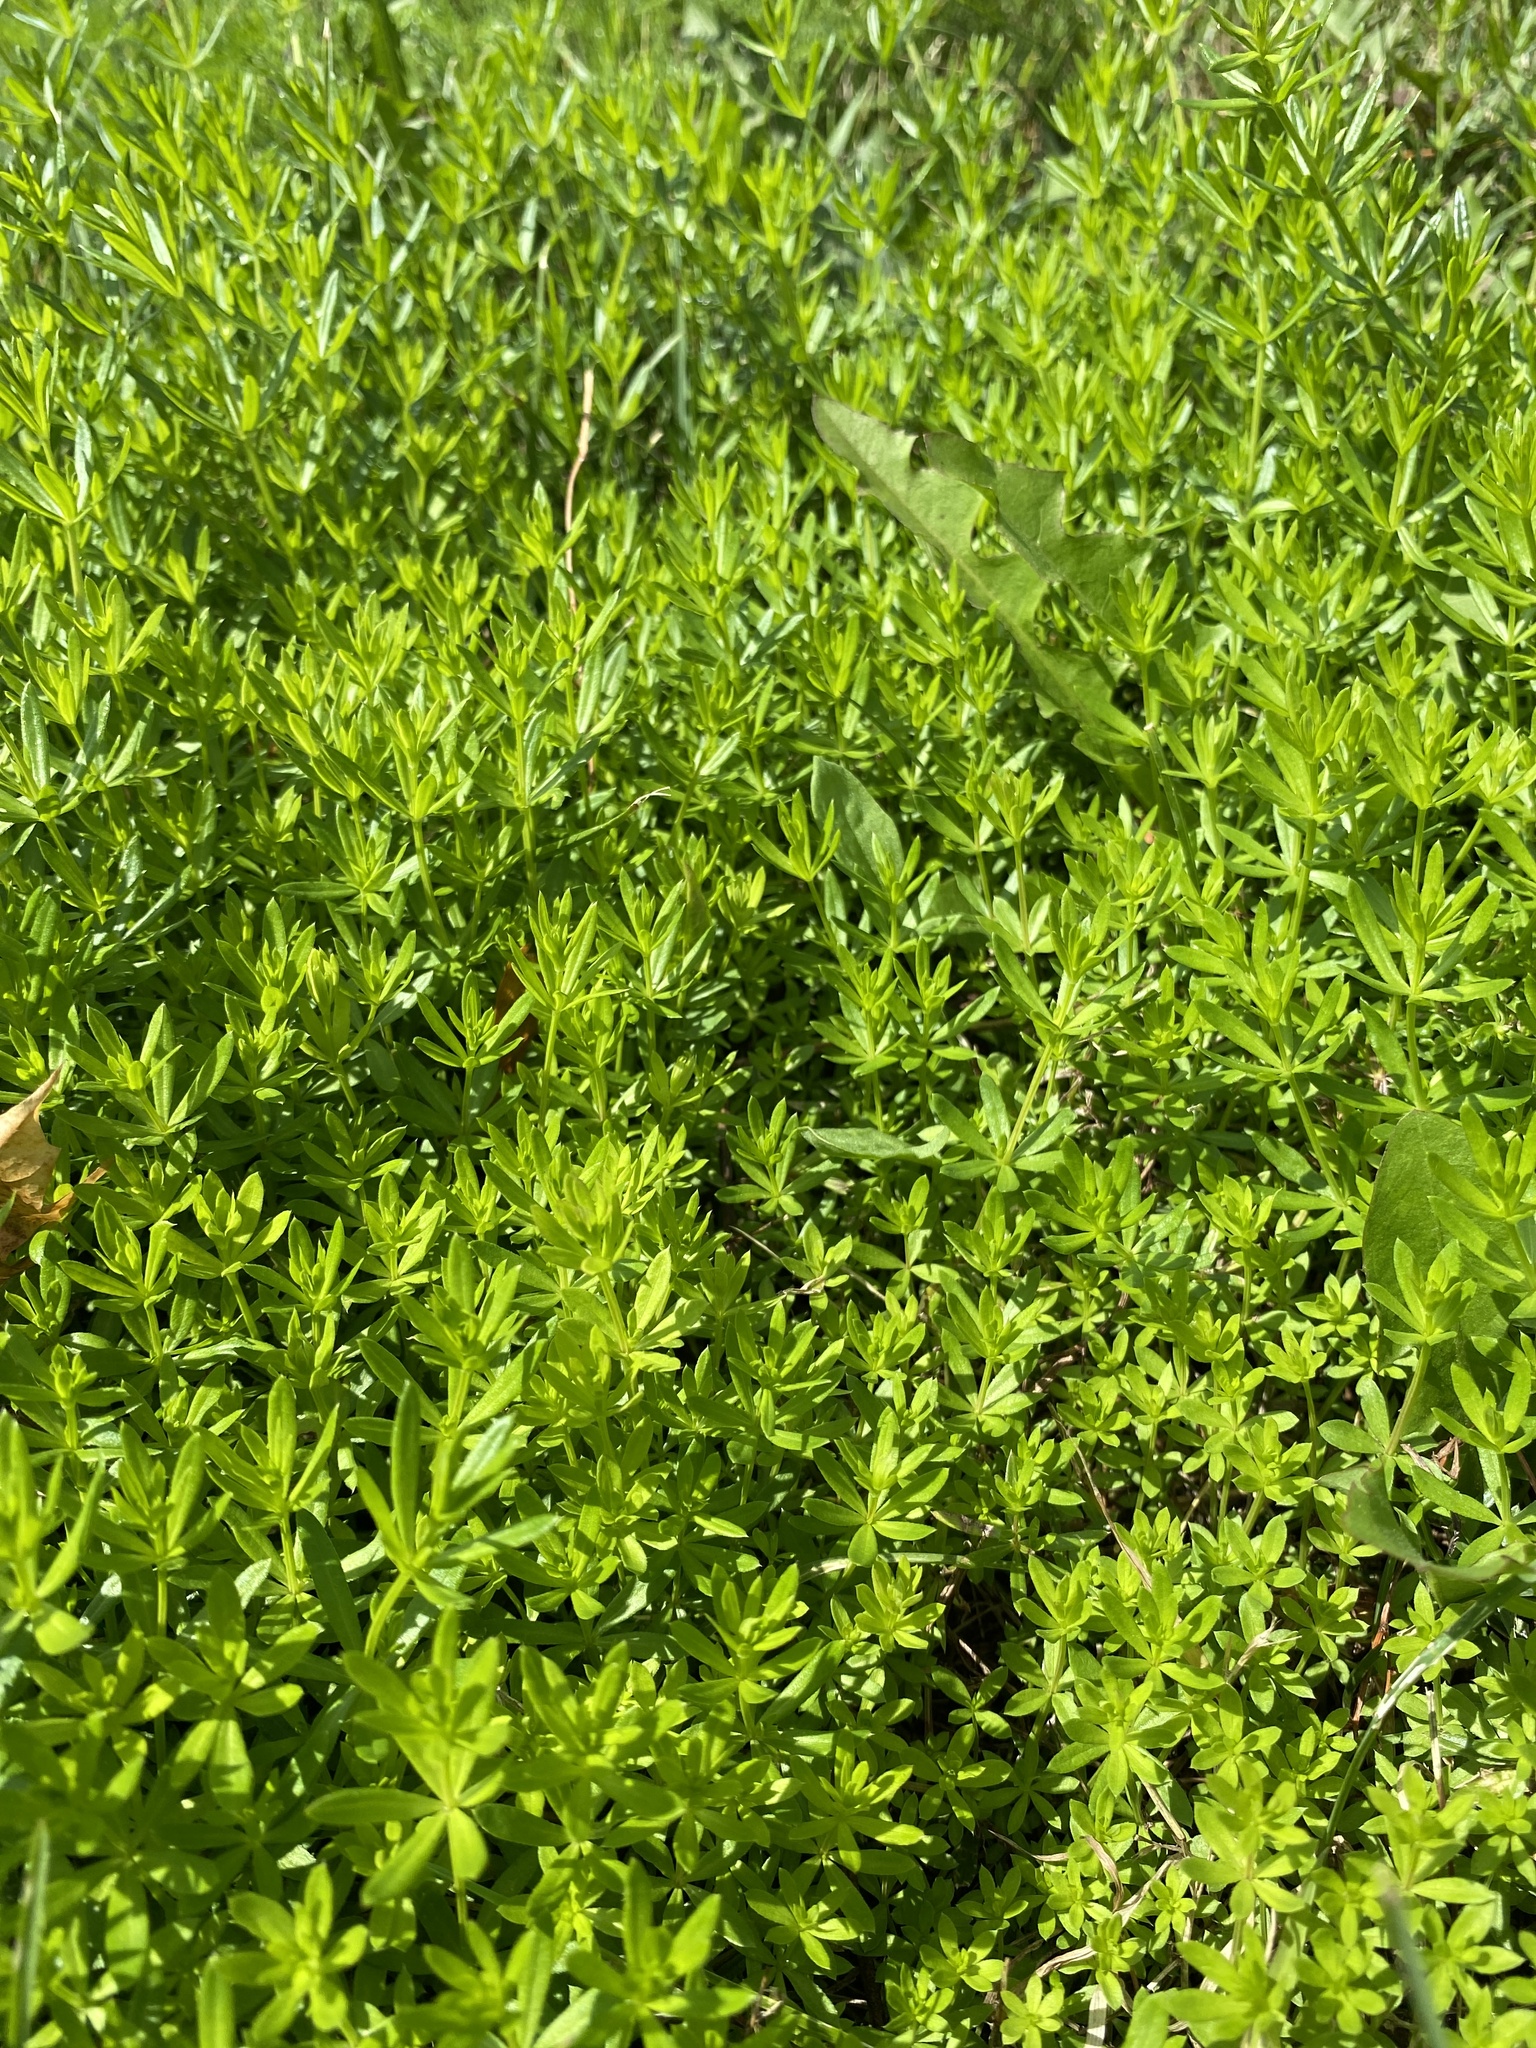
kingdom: Plantae
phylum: Tracheophyta
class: Magnoliopsida
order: Gentianales
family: Rubiaceae
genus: Galium
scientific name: Galium mollugo
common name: Hedge bedstraw
